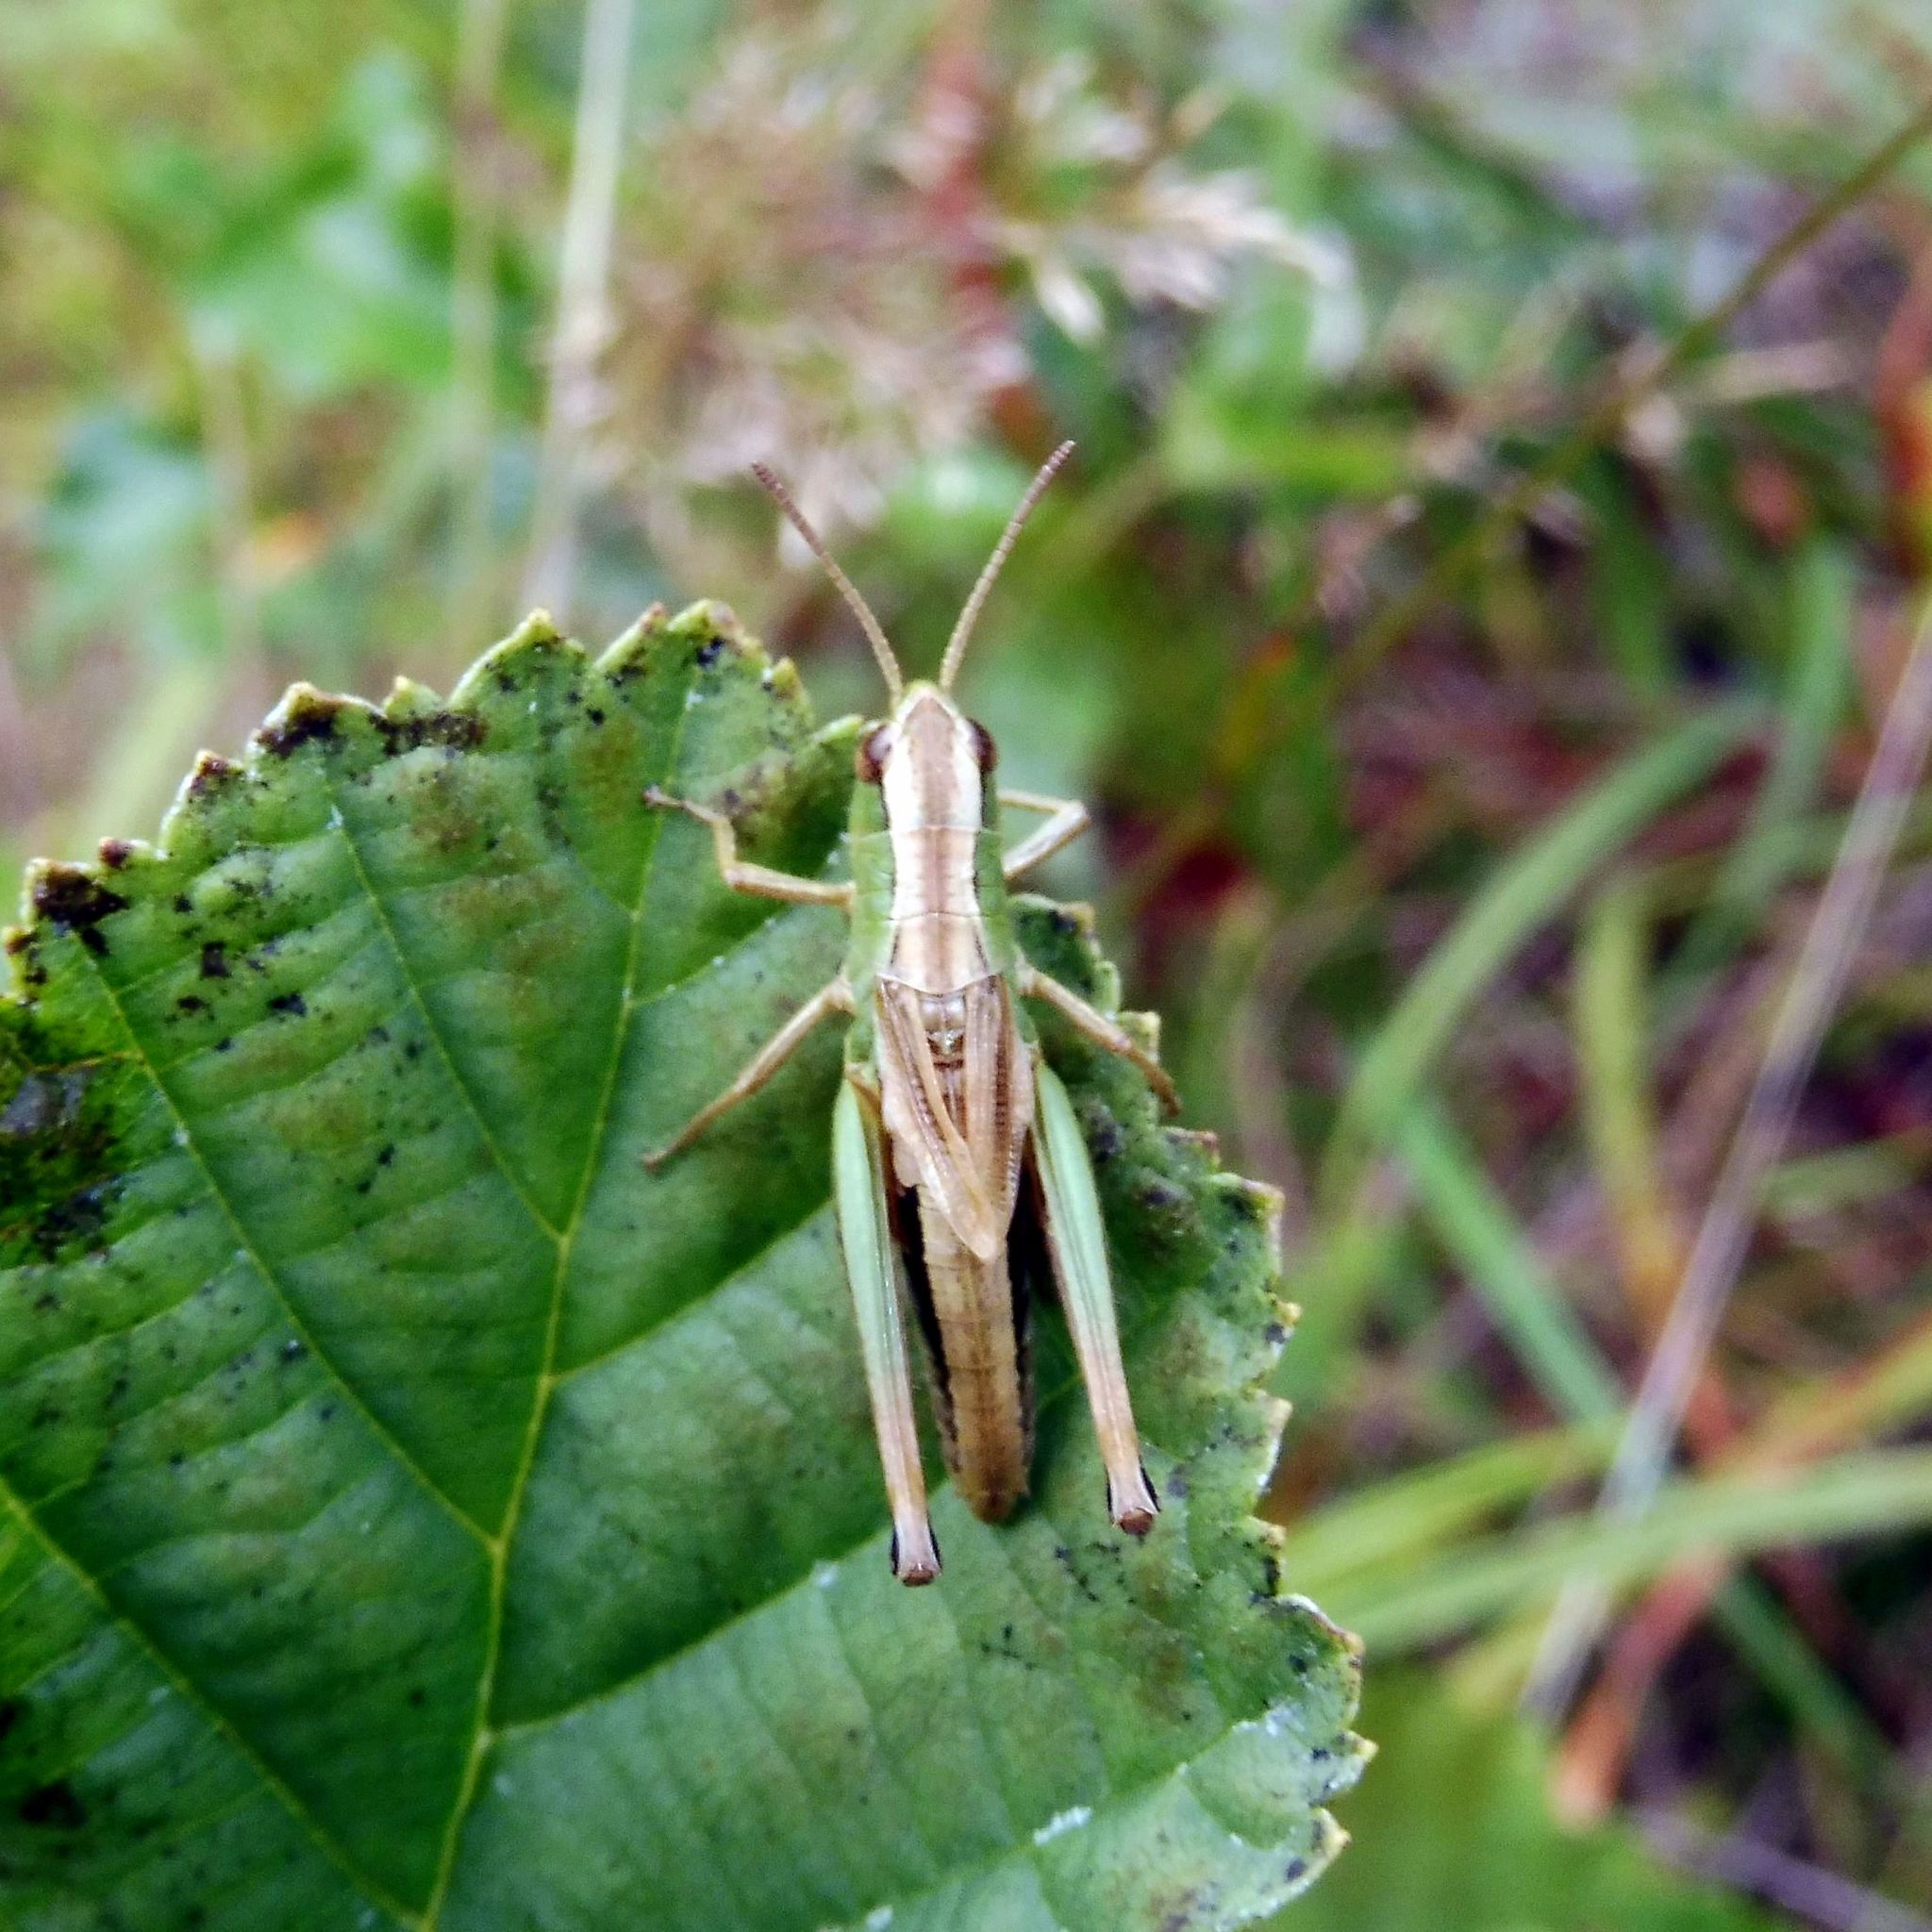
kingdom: Animalia
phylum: Arthropoda
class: Insecta
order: Orthoptera
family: Acrididae
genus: Pseudochorthippus
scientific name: Pseudochorthippus parallelus
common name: Meadow grasshopper
